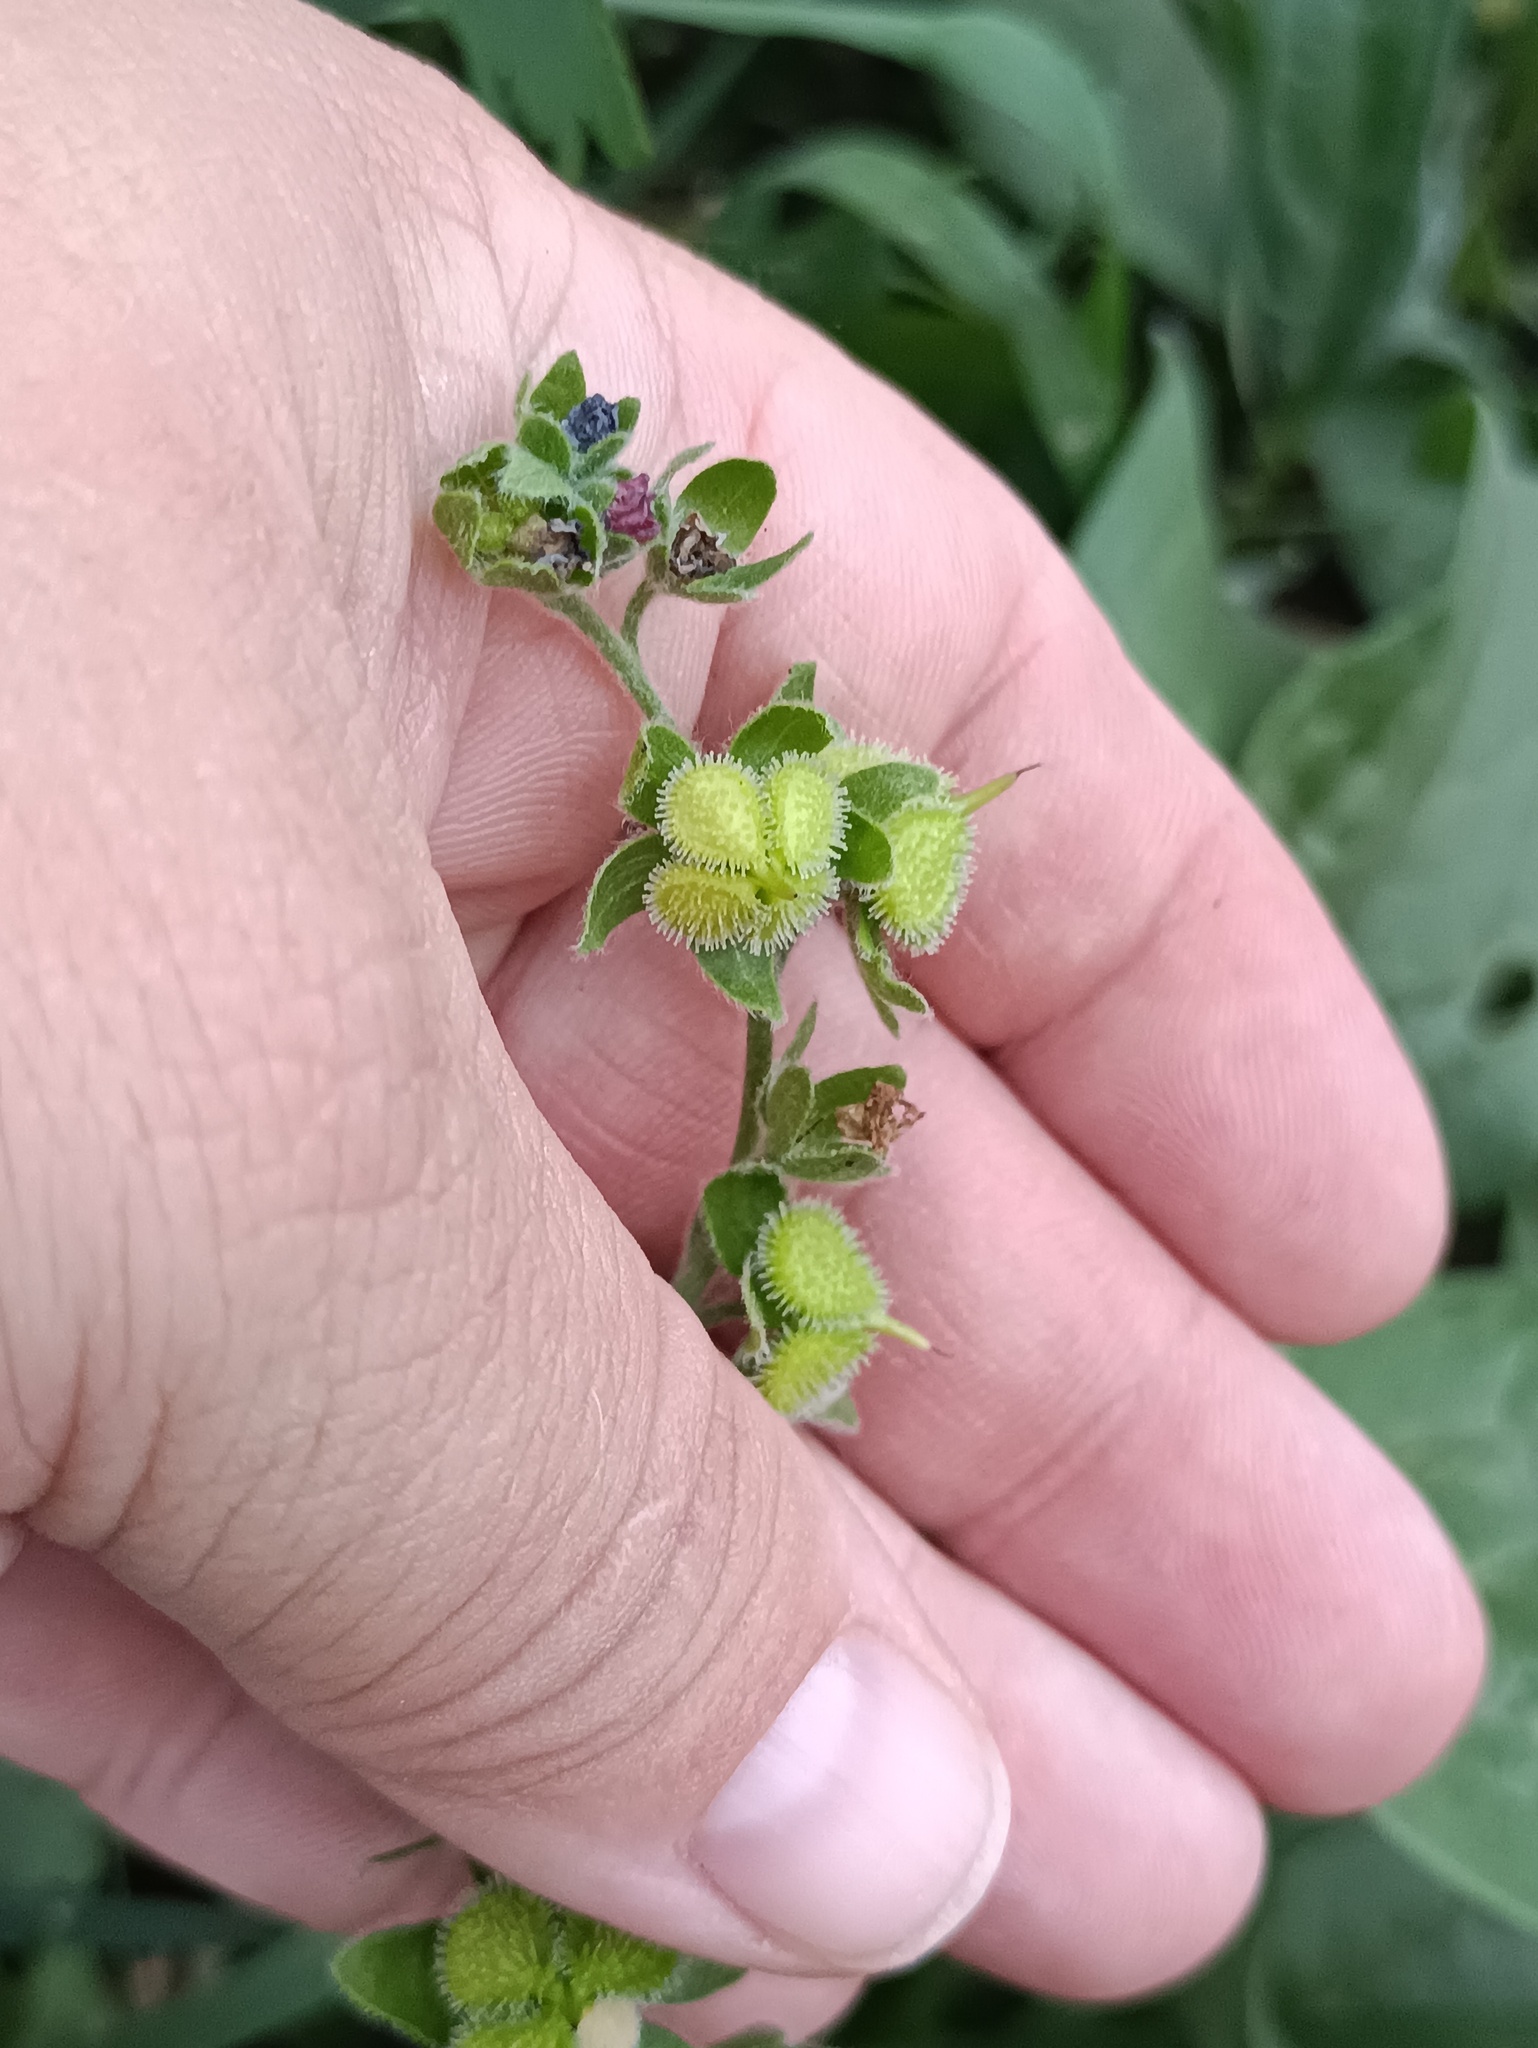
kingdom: Plantae
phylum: Tracheophyta
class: Magnoliopsida
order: Boraginales
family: Boraginaceae
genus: Cynoglossum
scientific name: Cynoglossum officinale
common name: Hound's-tongue
